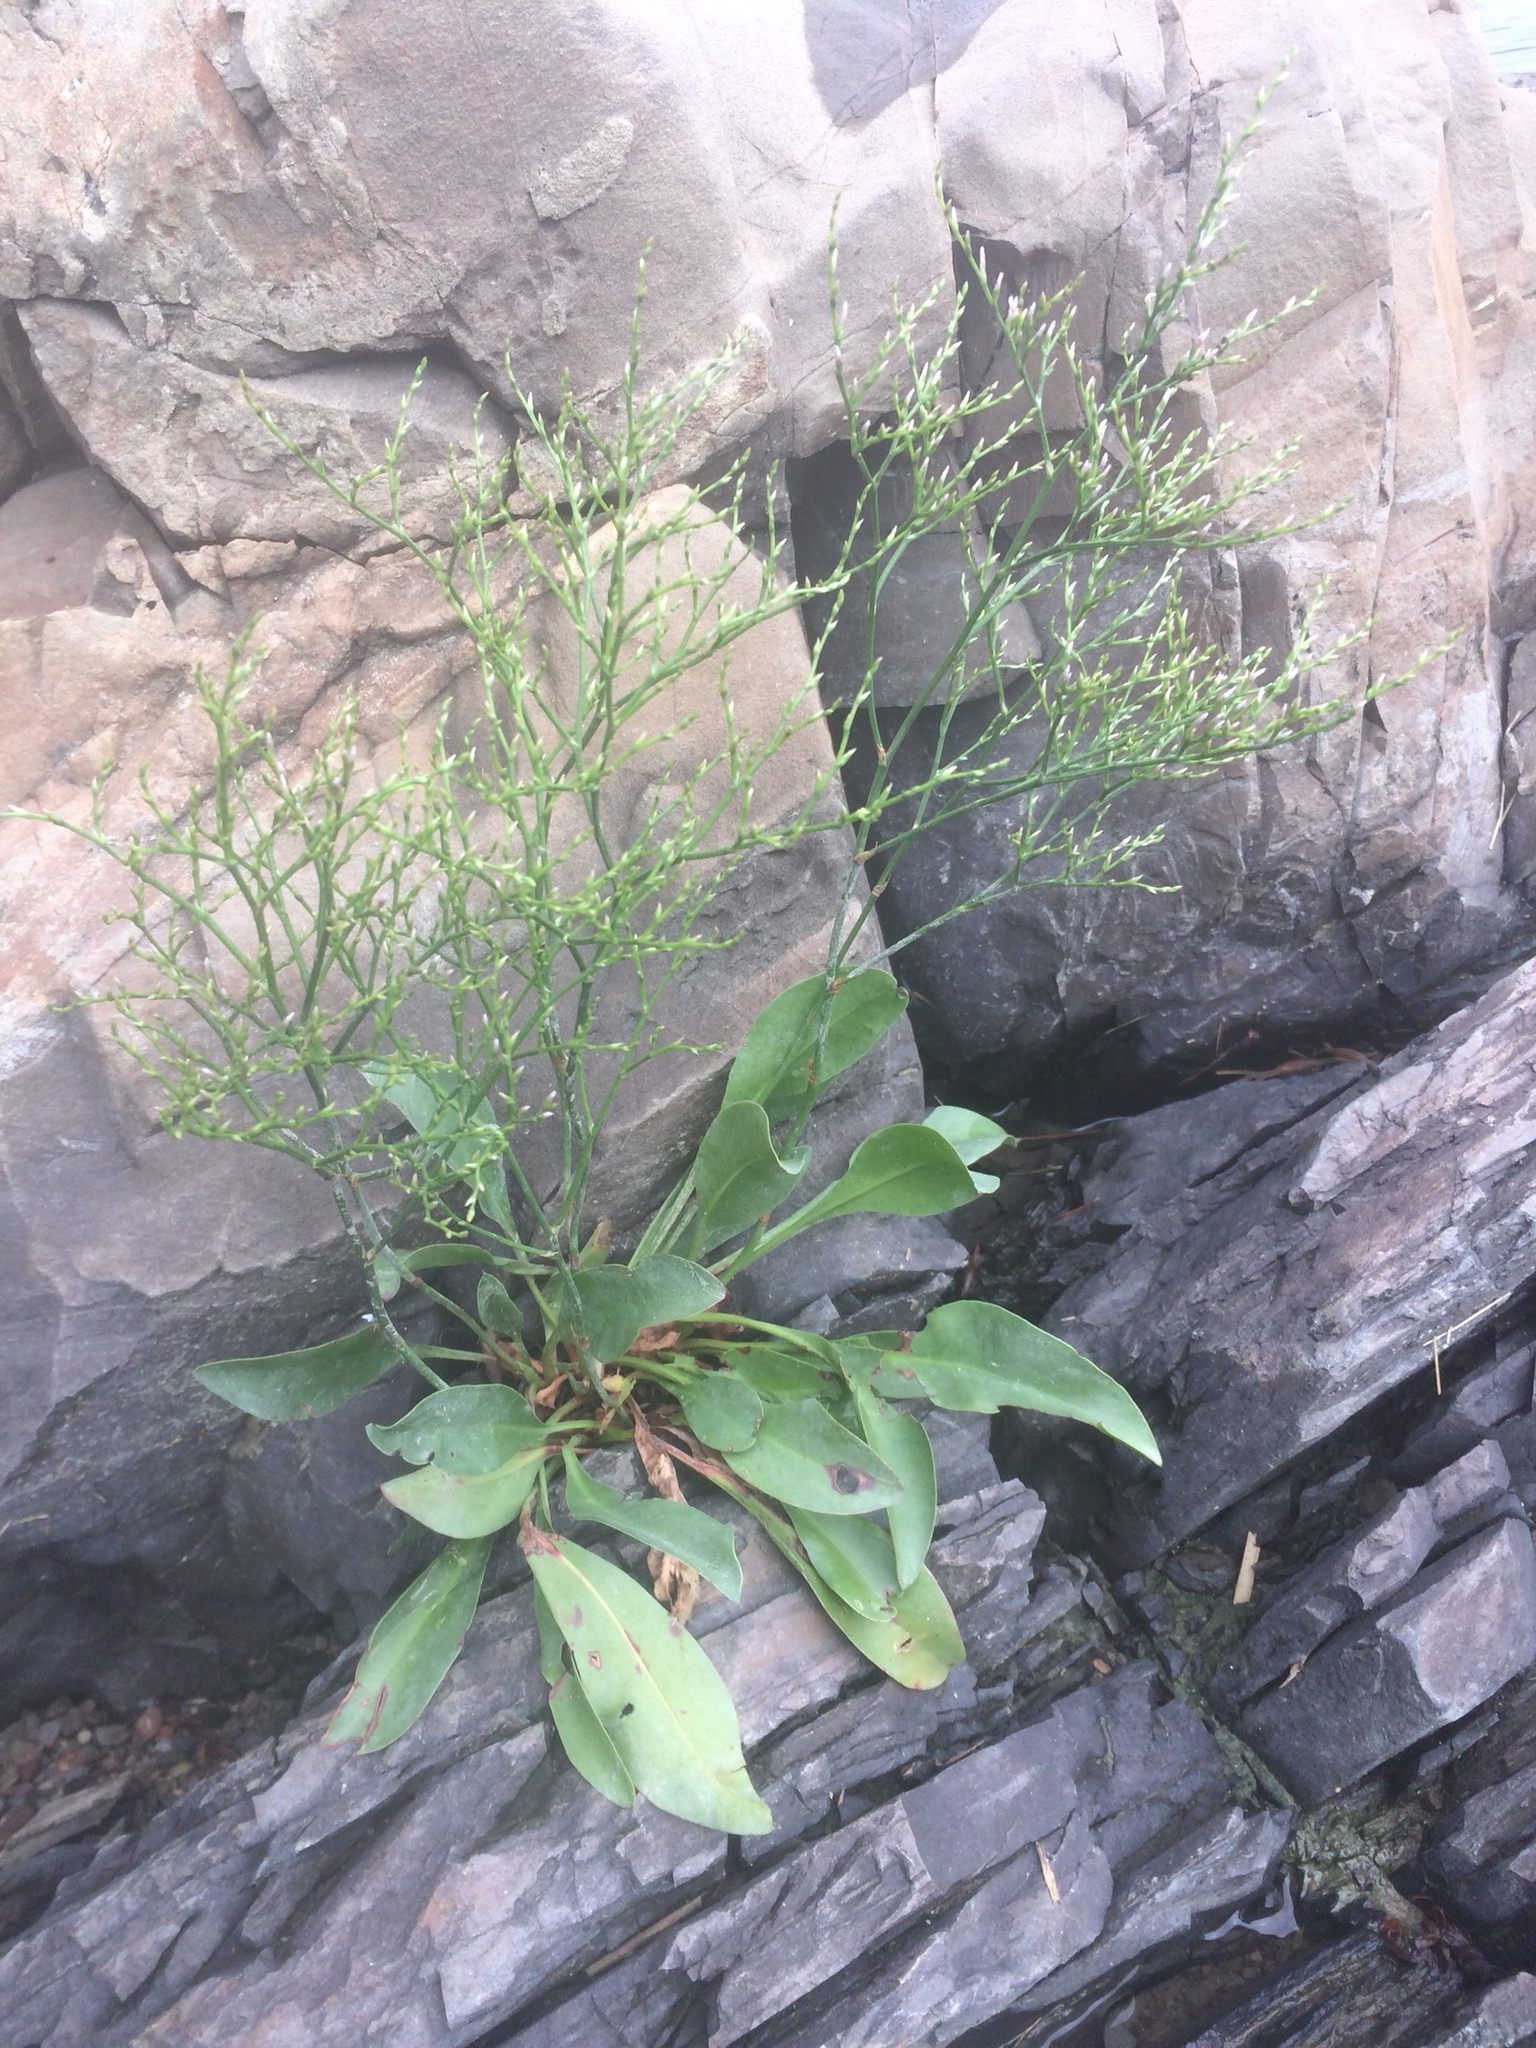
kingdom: Plantae
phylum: Tracheophyta
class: Magnoliopsida
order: Caryophyllales
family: Plumbaginaceae
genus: Limonium
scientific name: Limonium carolinianum
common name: Carolina sea lavender
